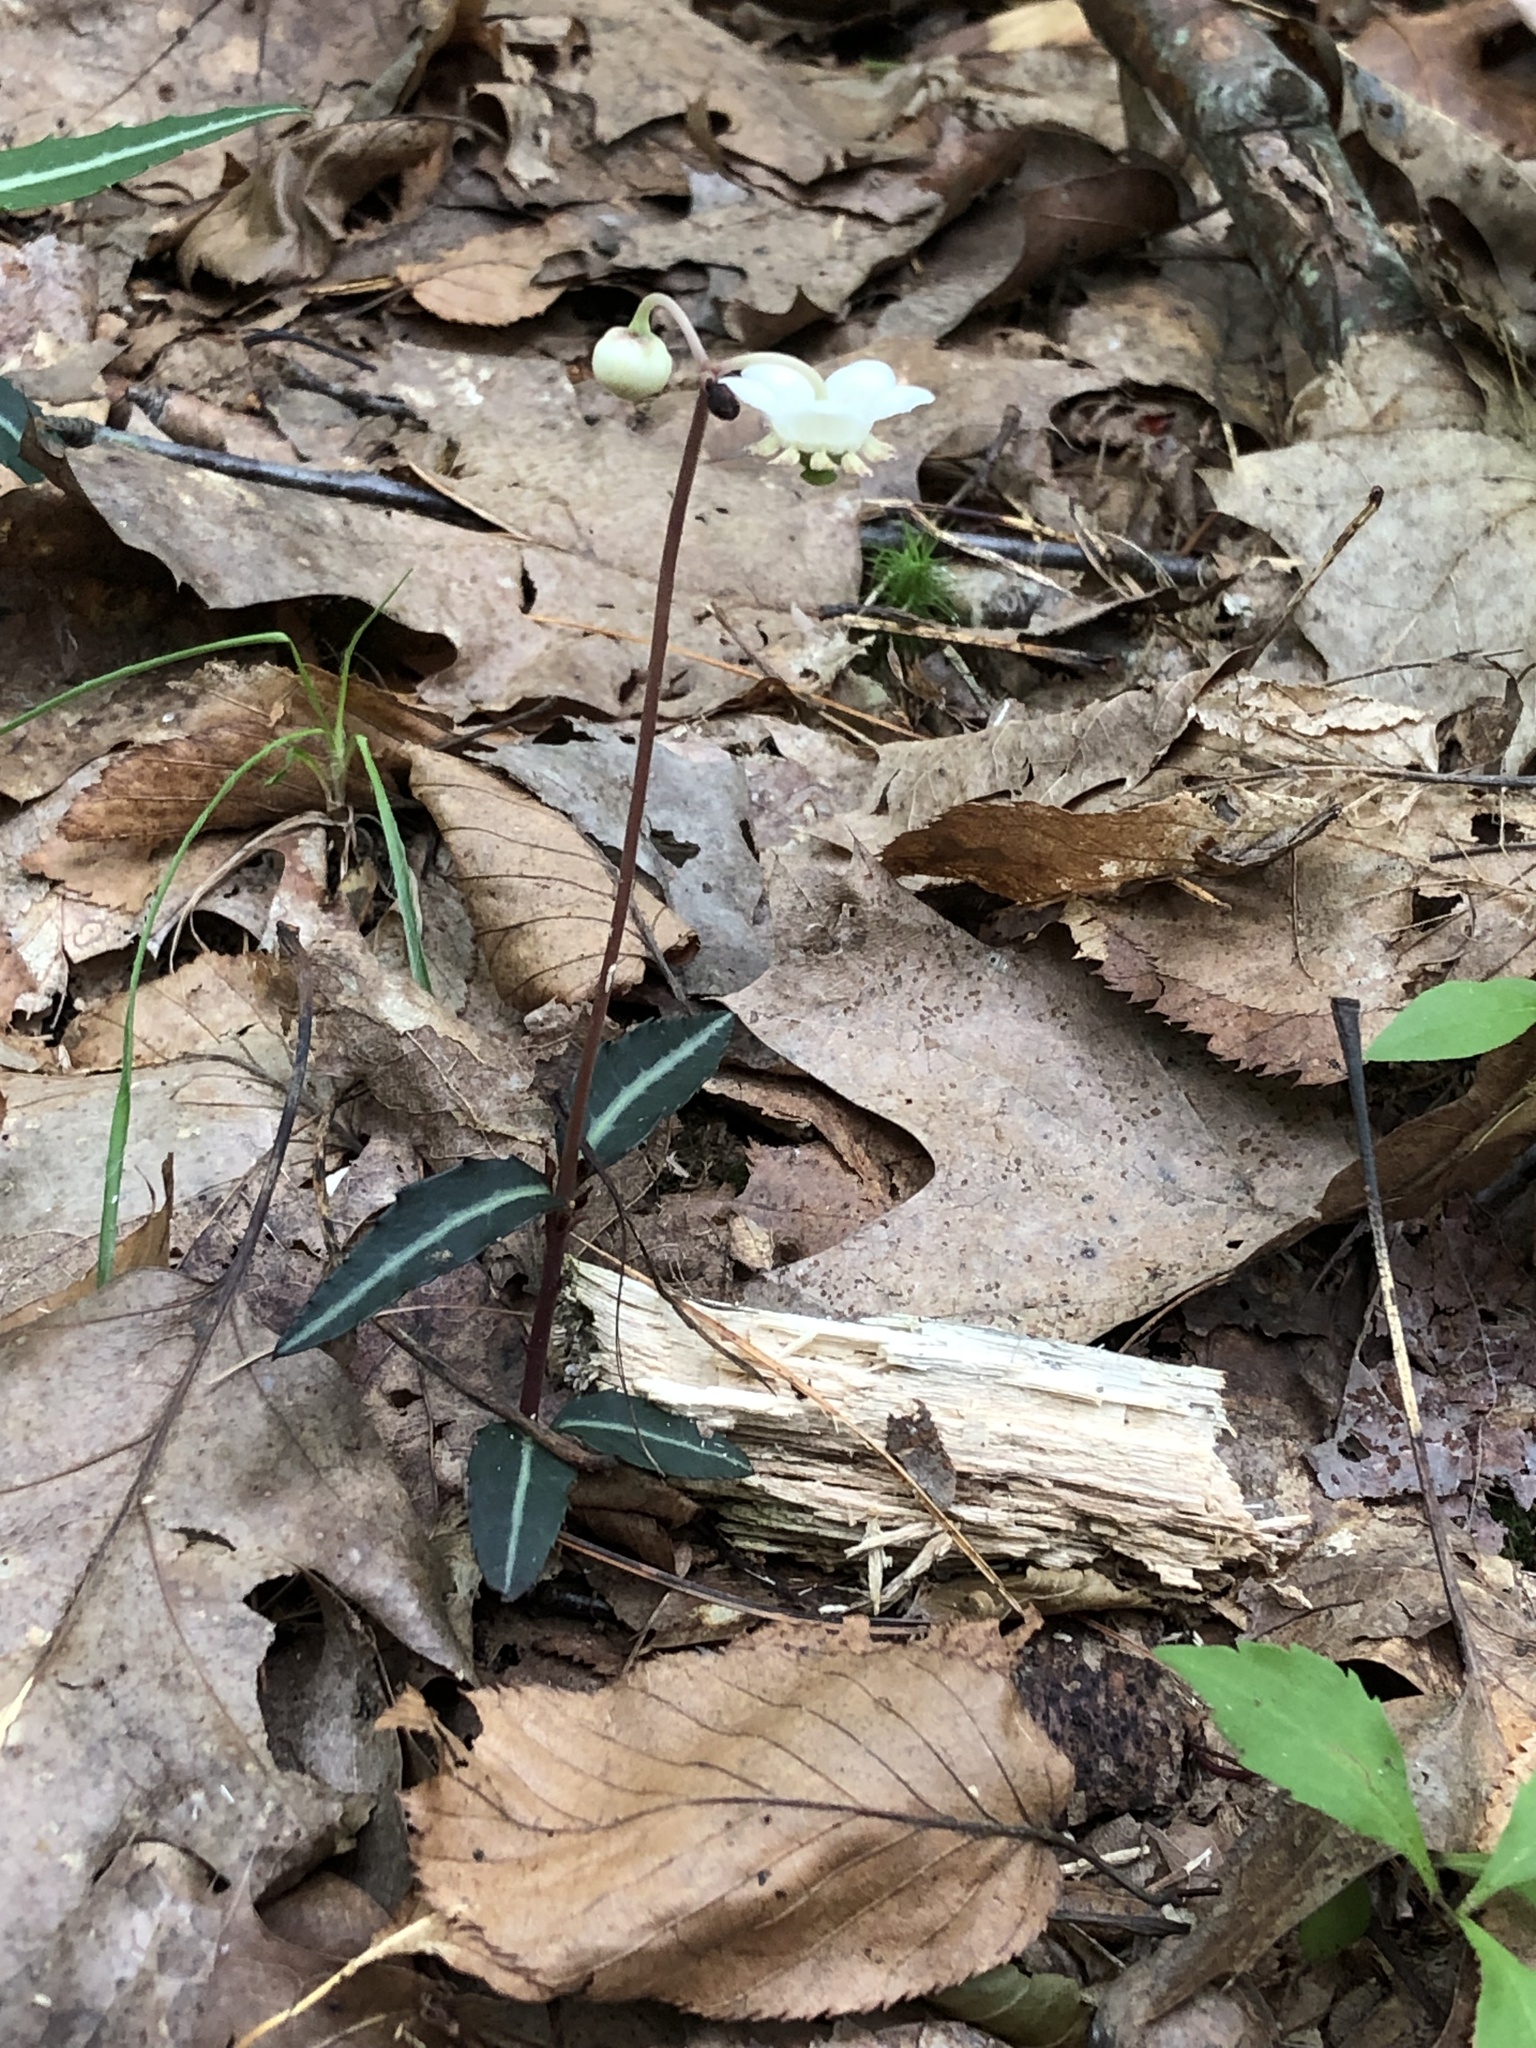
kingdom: Plantae
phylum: Tracheophyta
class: Magnoliopsida
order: Ericales
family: Ericaceae
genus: Chimaphila
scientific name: Chimaphila maculata
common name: Spotted pipsissewa
